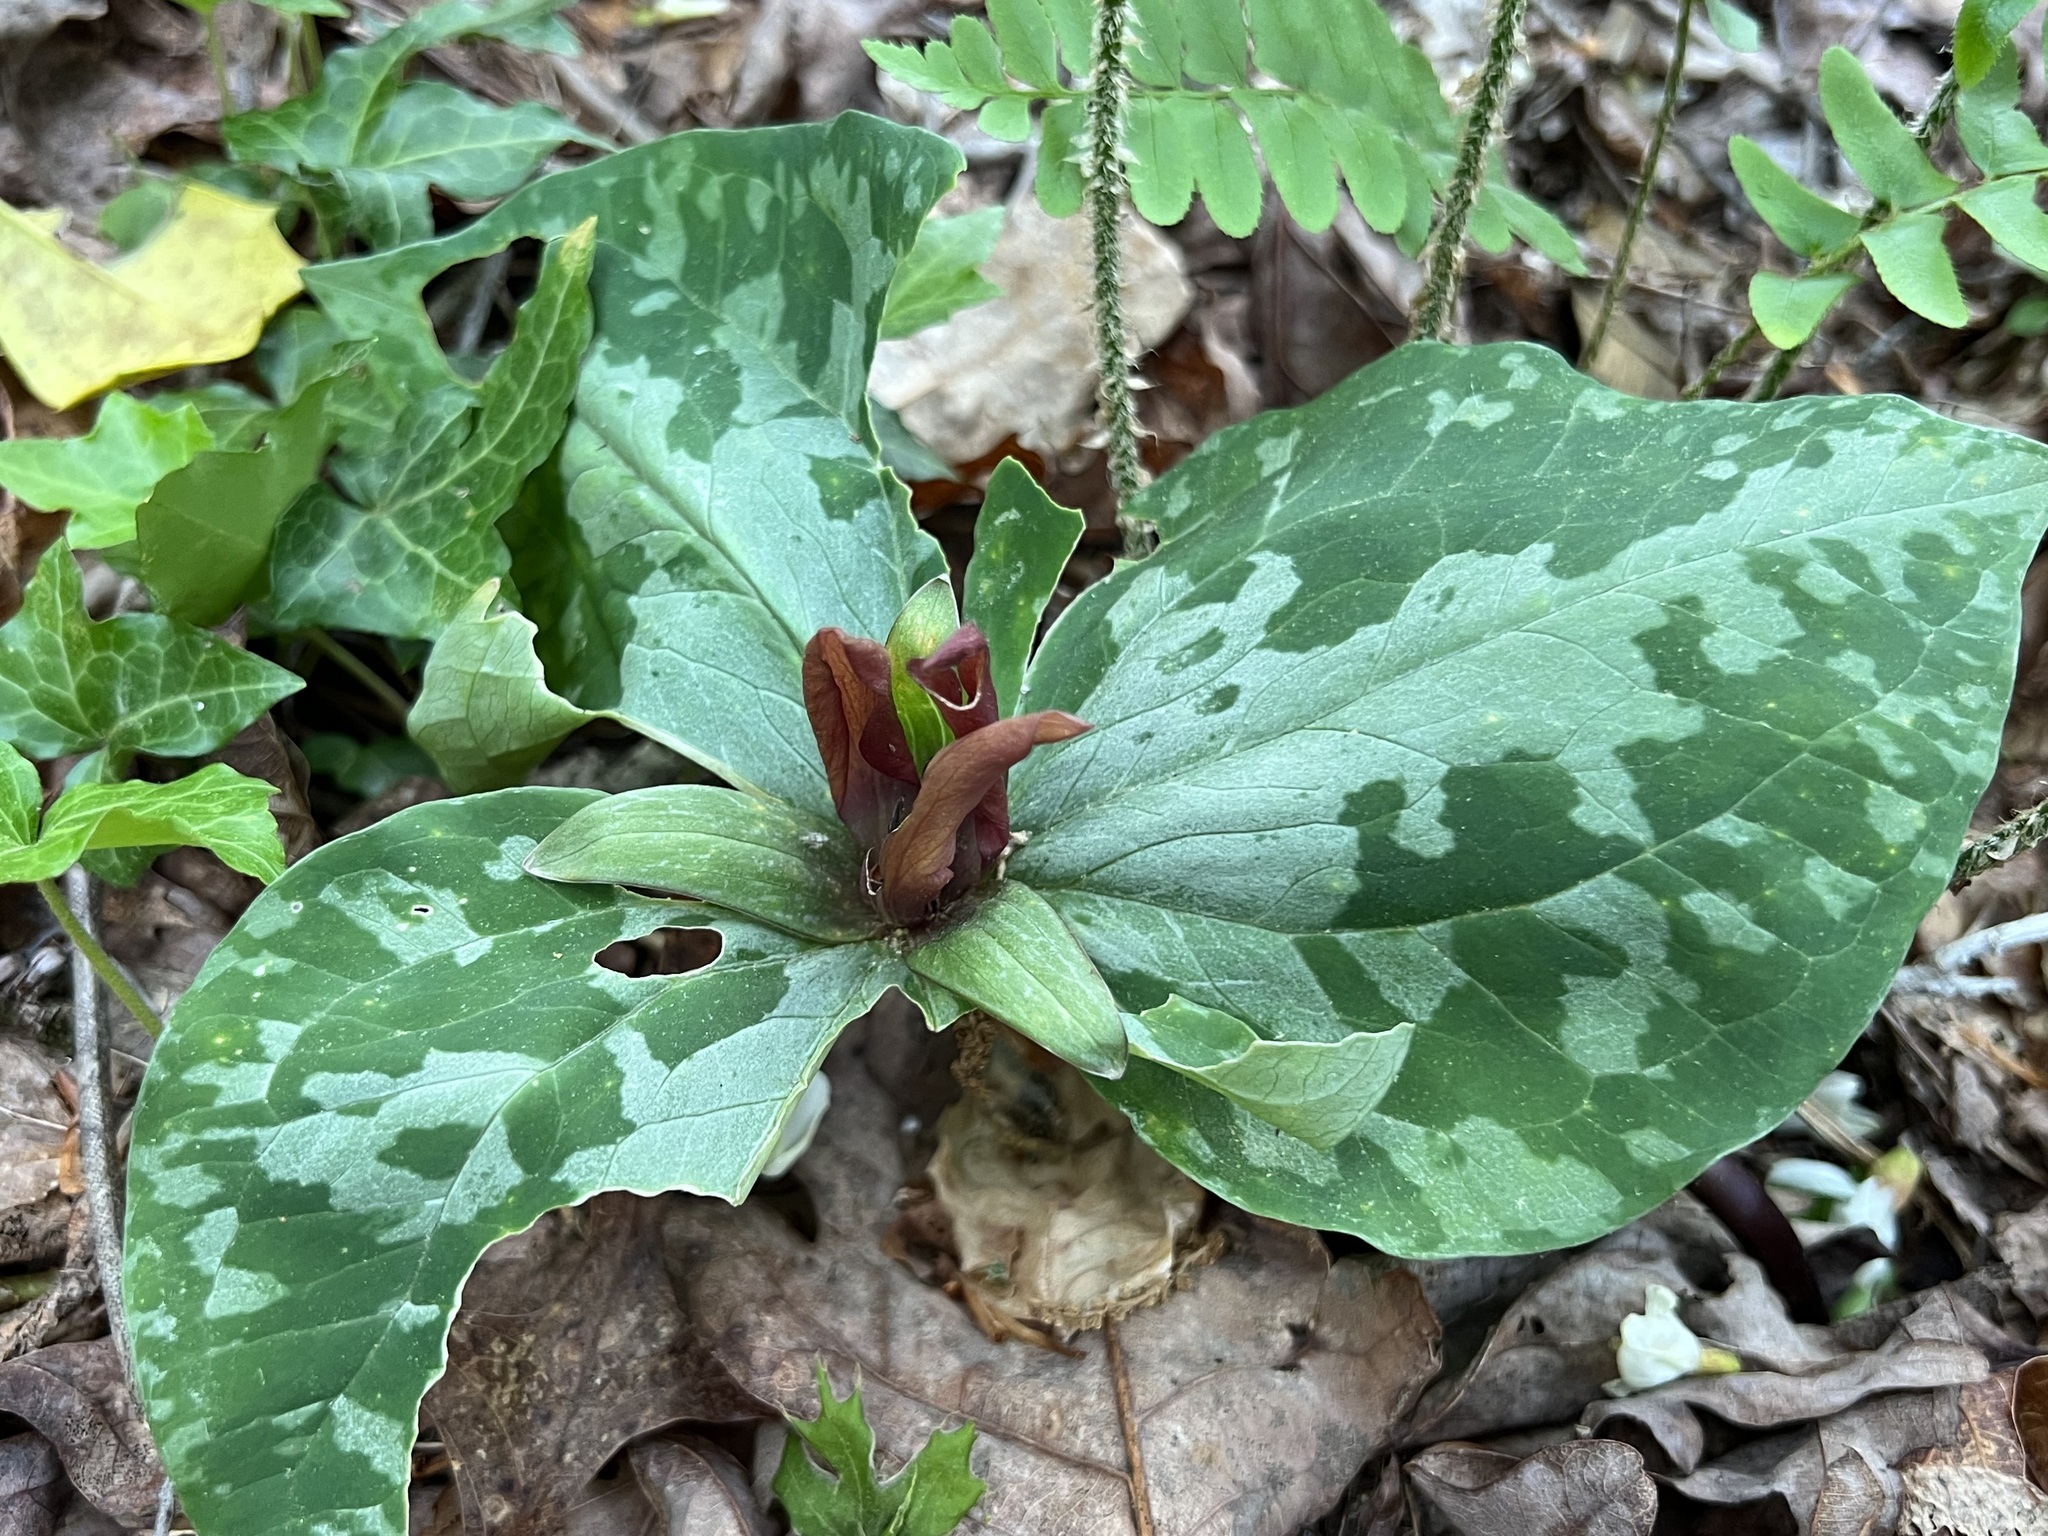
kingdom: Plantae
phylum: Tracheophyta
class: Liliopsida
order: Liliales
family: Melanthiaceae
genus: Trillium
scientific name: Trillium cuneatum
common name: Cuneate trillium
